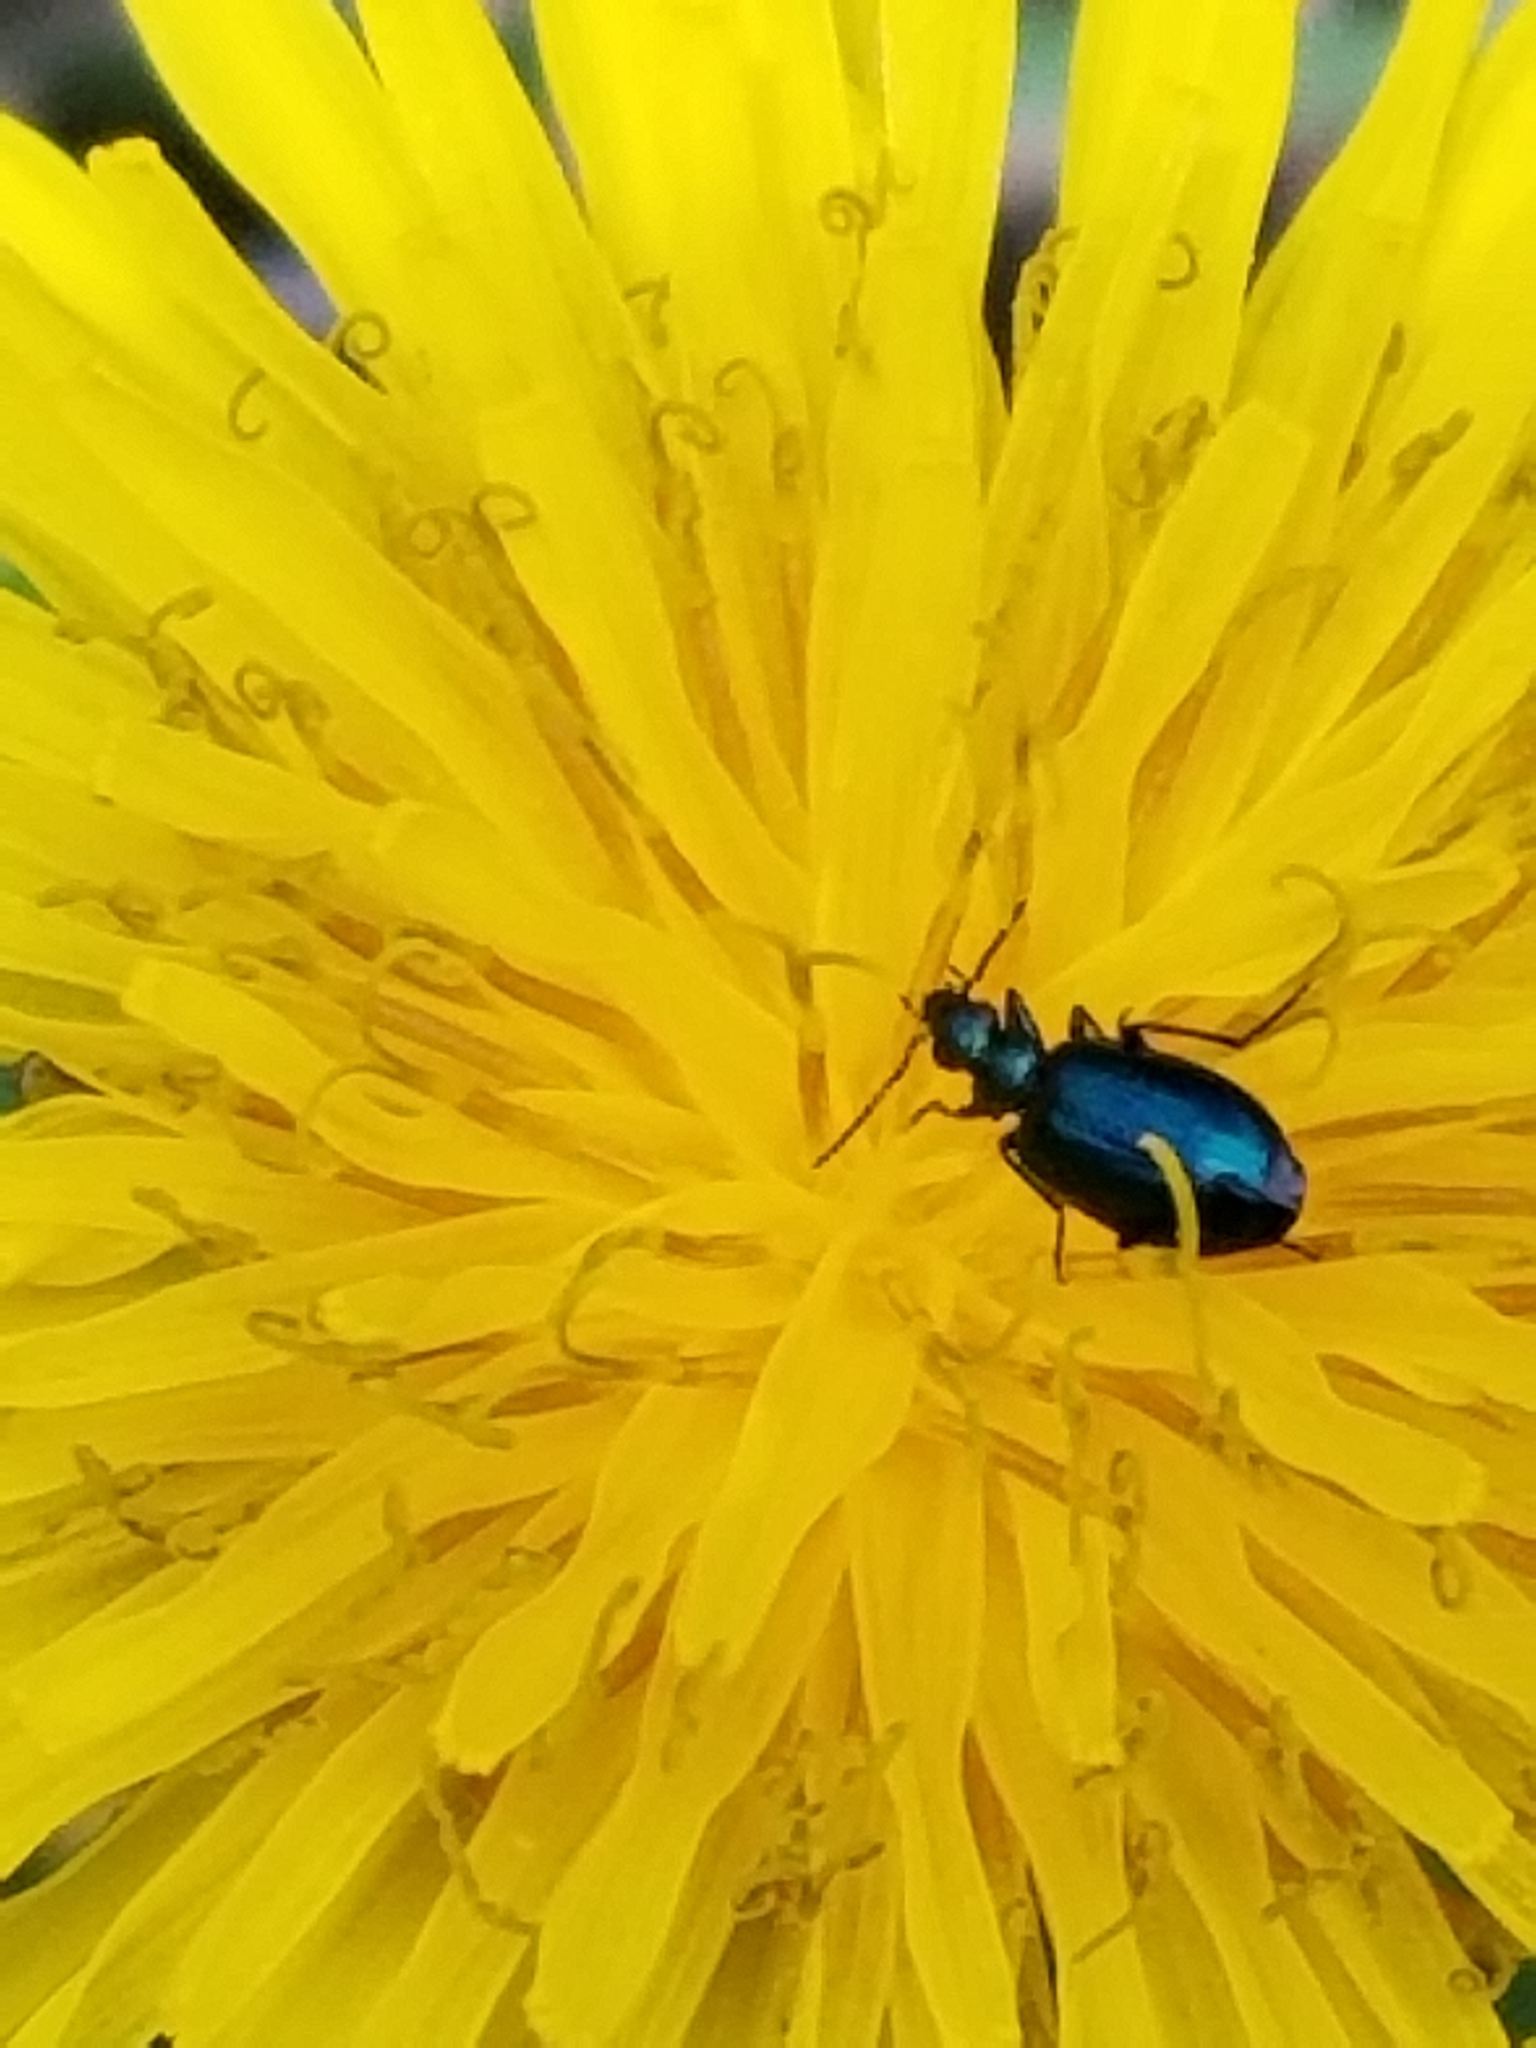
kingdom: Animalia
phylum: Arthropoda
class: Insecta
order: Coleoptera
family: Carabidae
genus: Lebia
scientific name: Lebia viridis
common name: Flower lebia beetle
